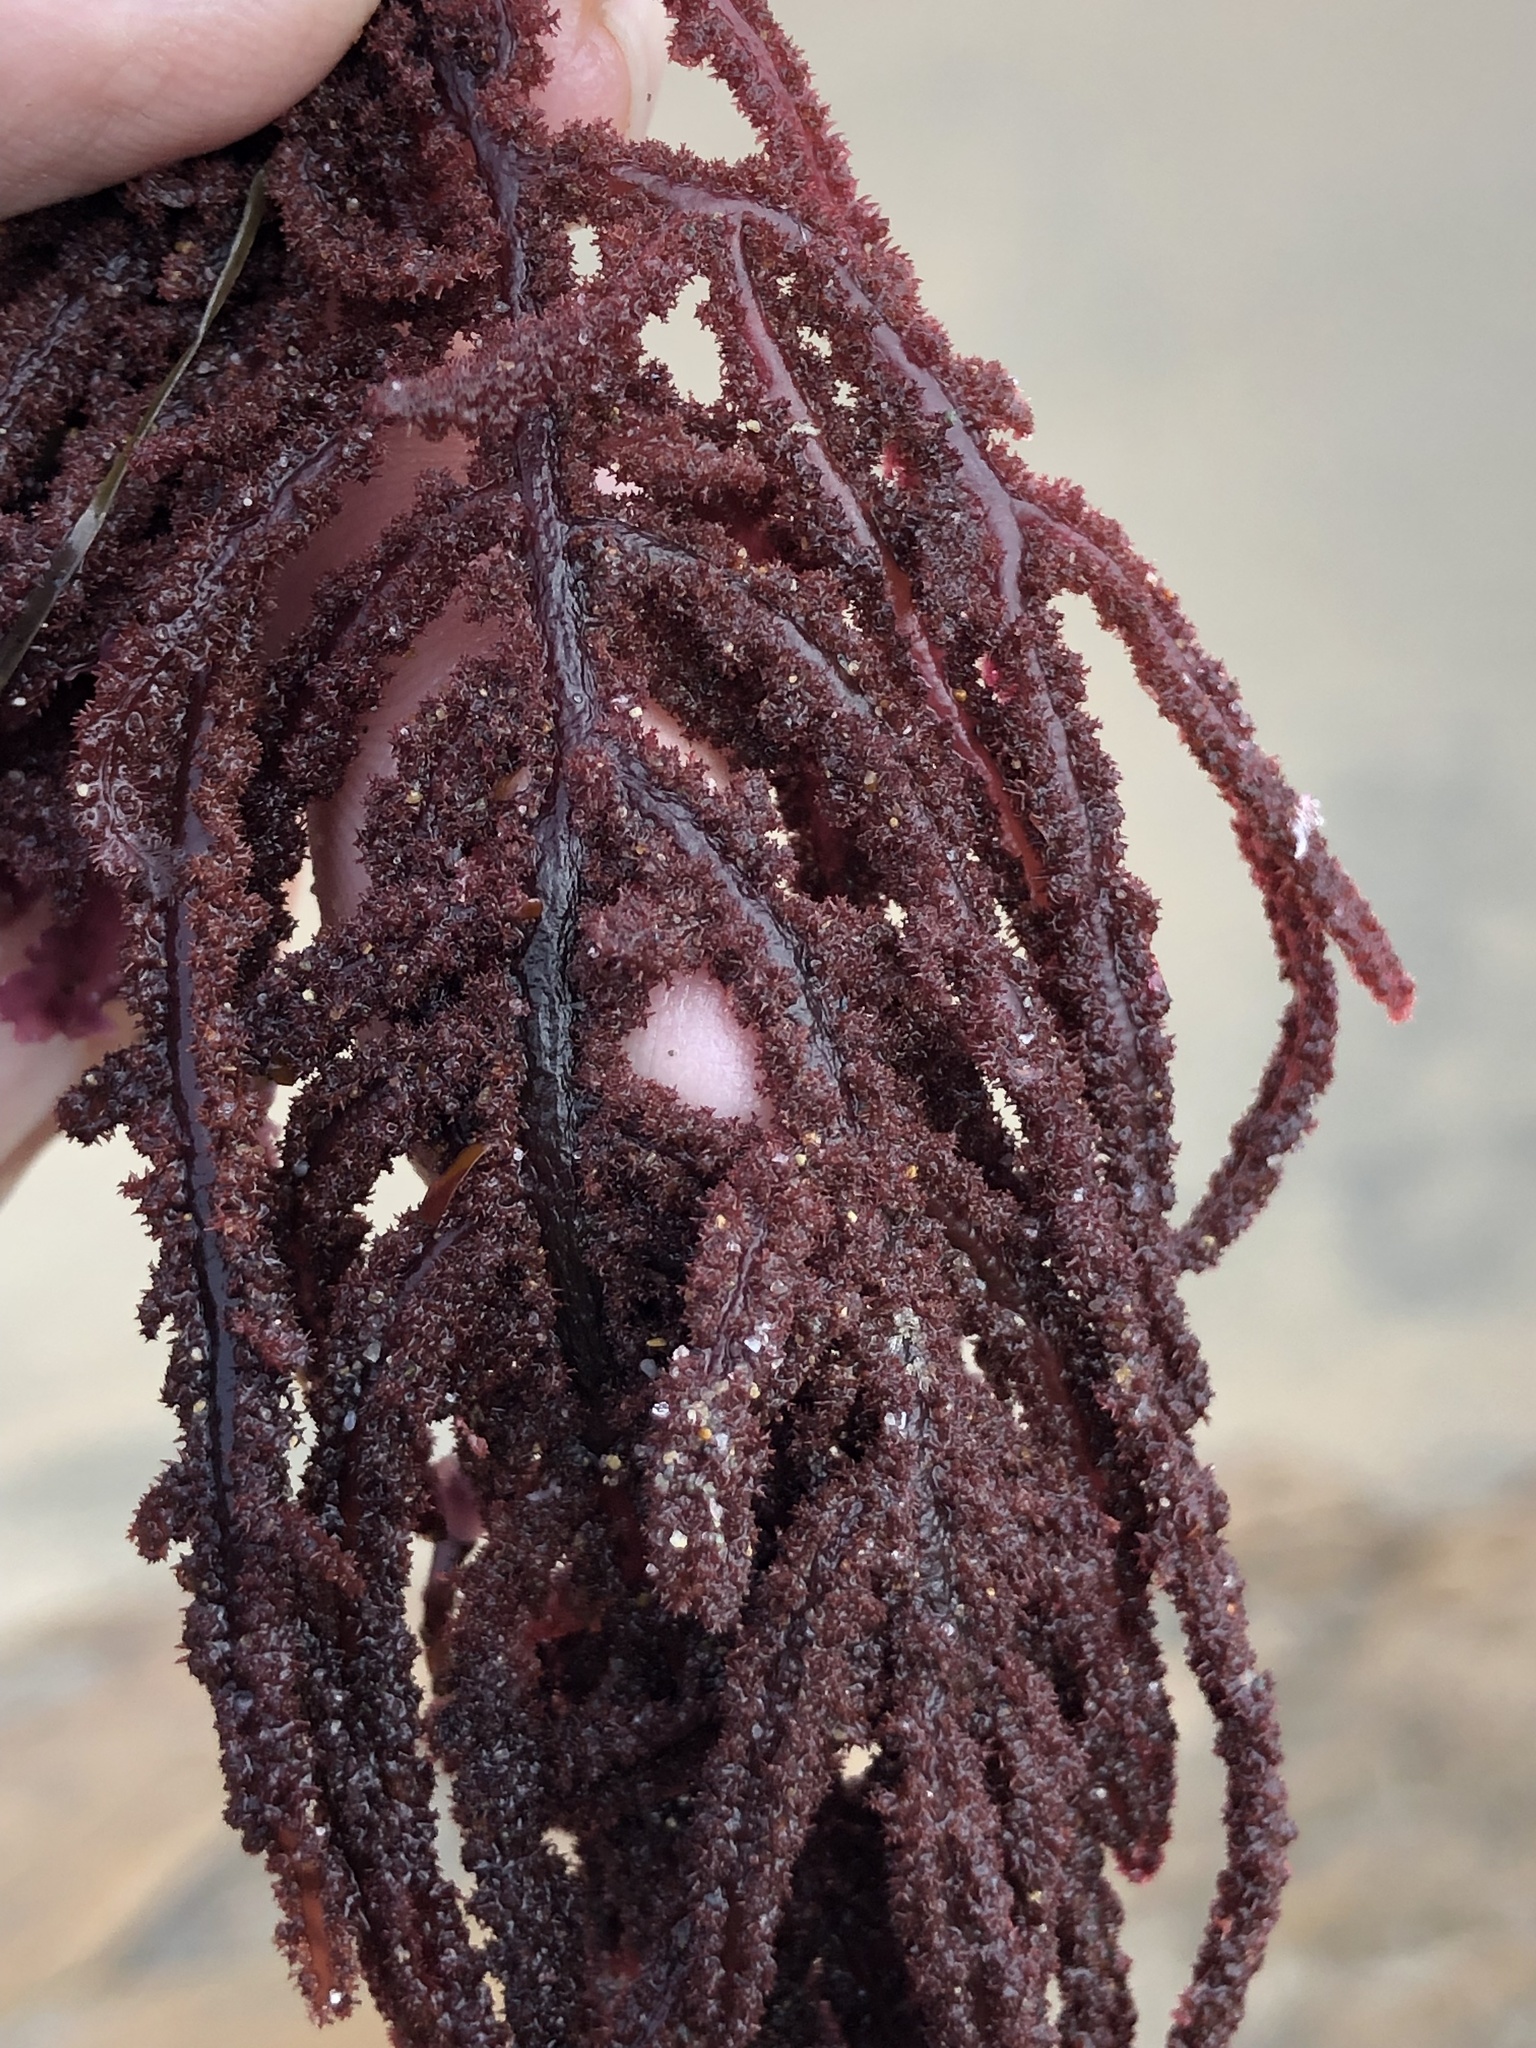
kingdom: Plantae
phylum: Rhodophyta
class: Florideophyceae
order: Ceramiales
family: Wrangeliaceae
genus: Neoptilota
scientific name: Neoptilota densa
